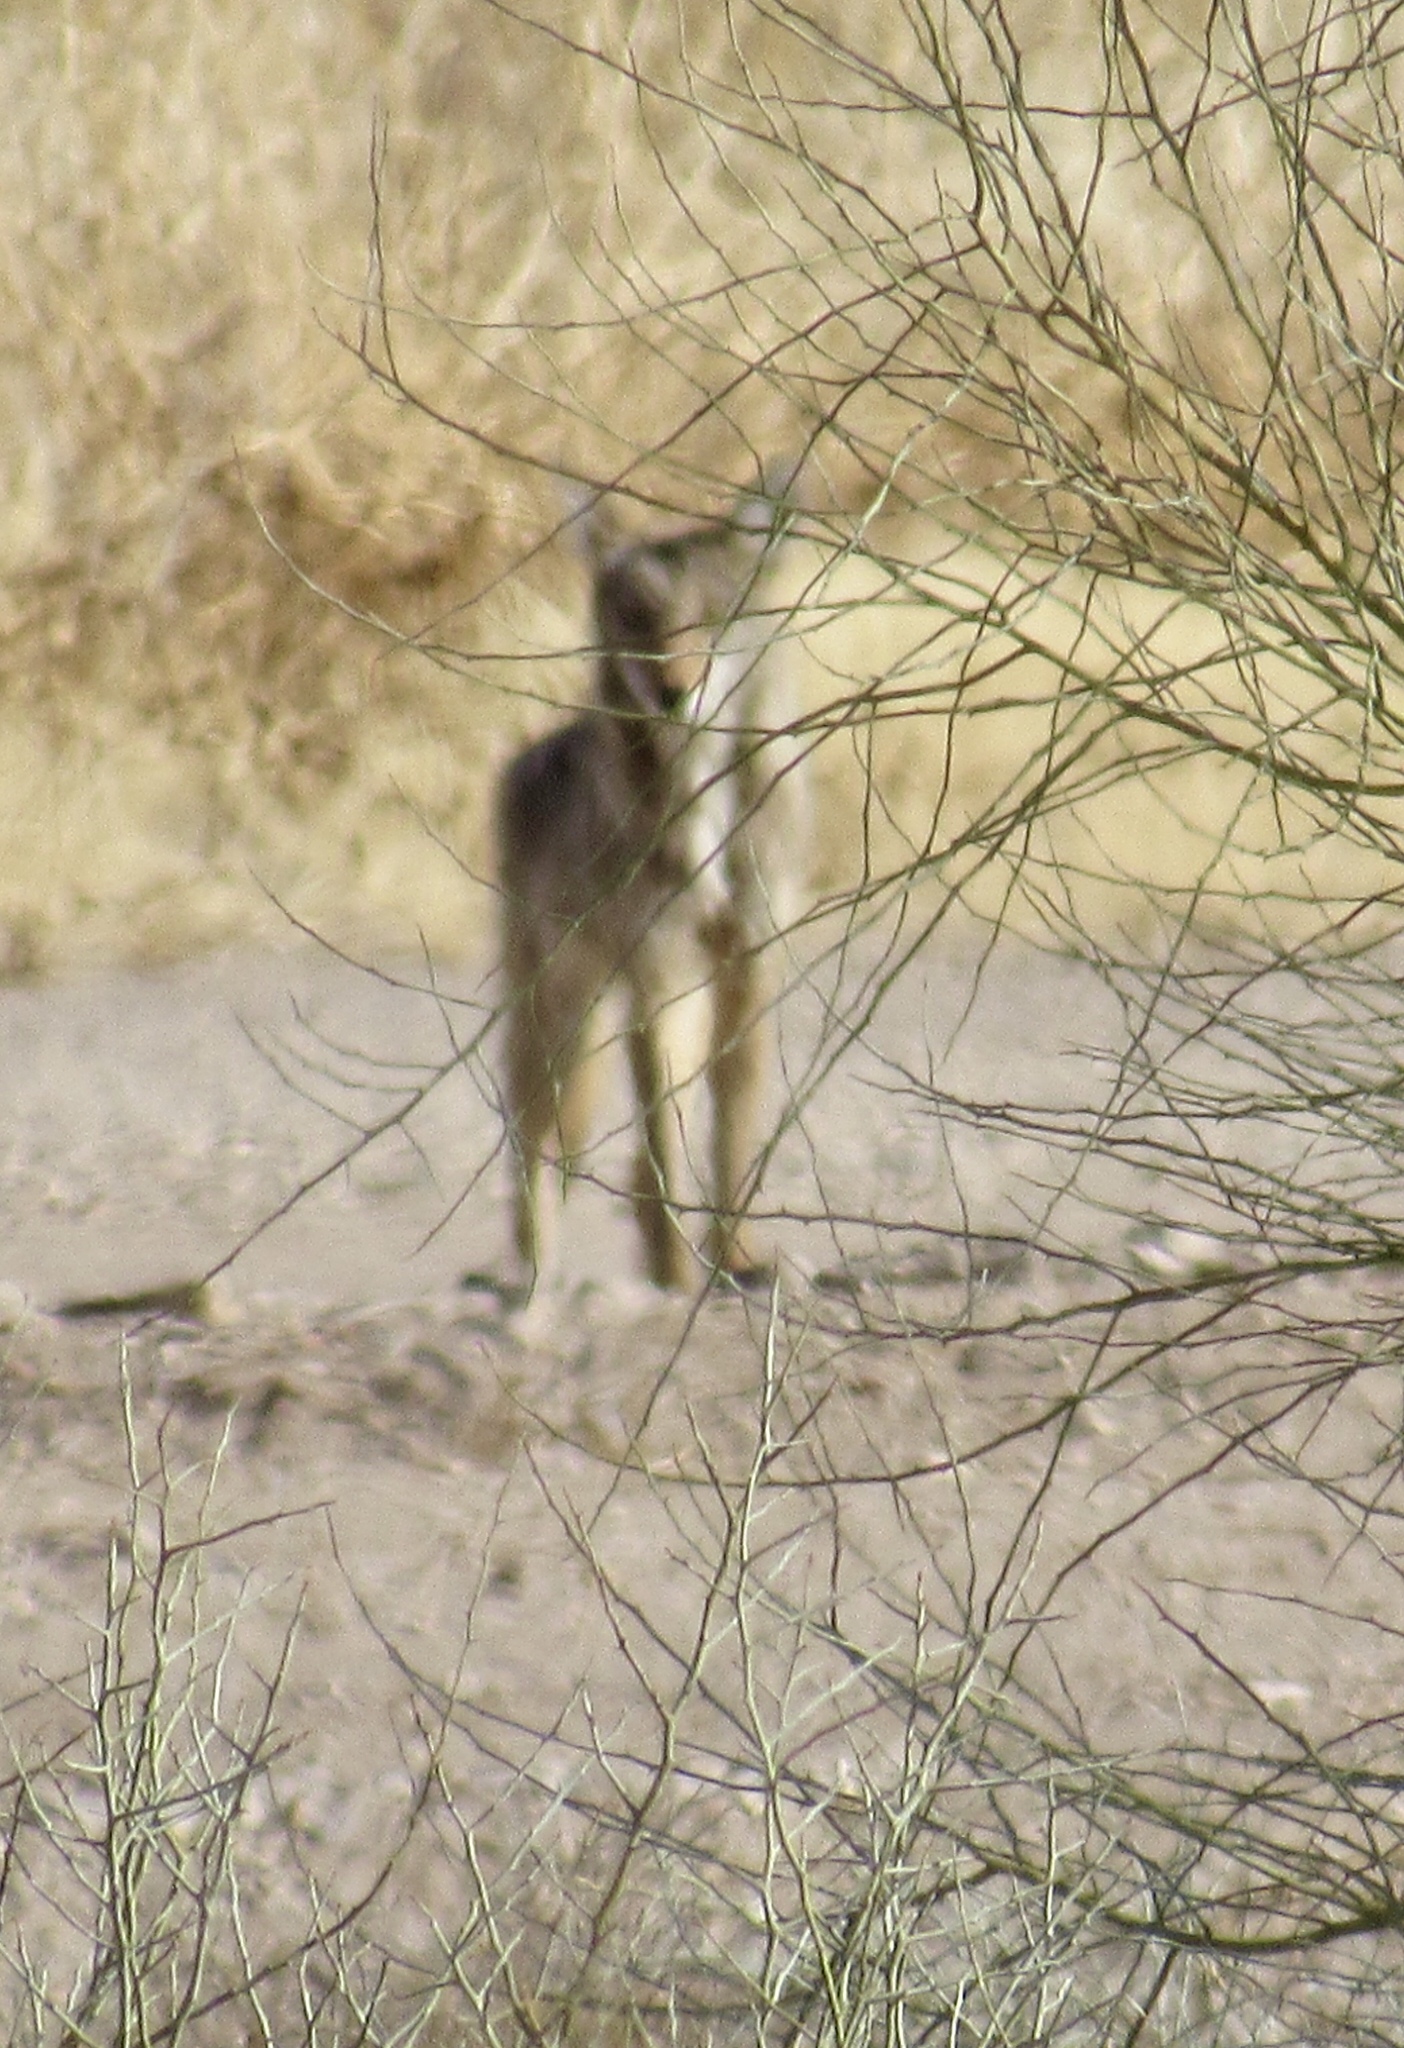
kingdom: Animalia
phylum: Chordata
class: Mammalia
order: Carnivora
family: Canidae
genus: Canis
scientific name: Canis latrans
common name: Coyote
